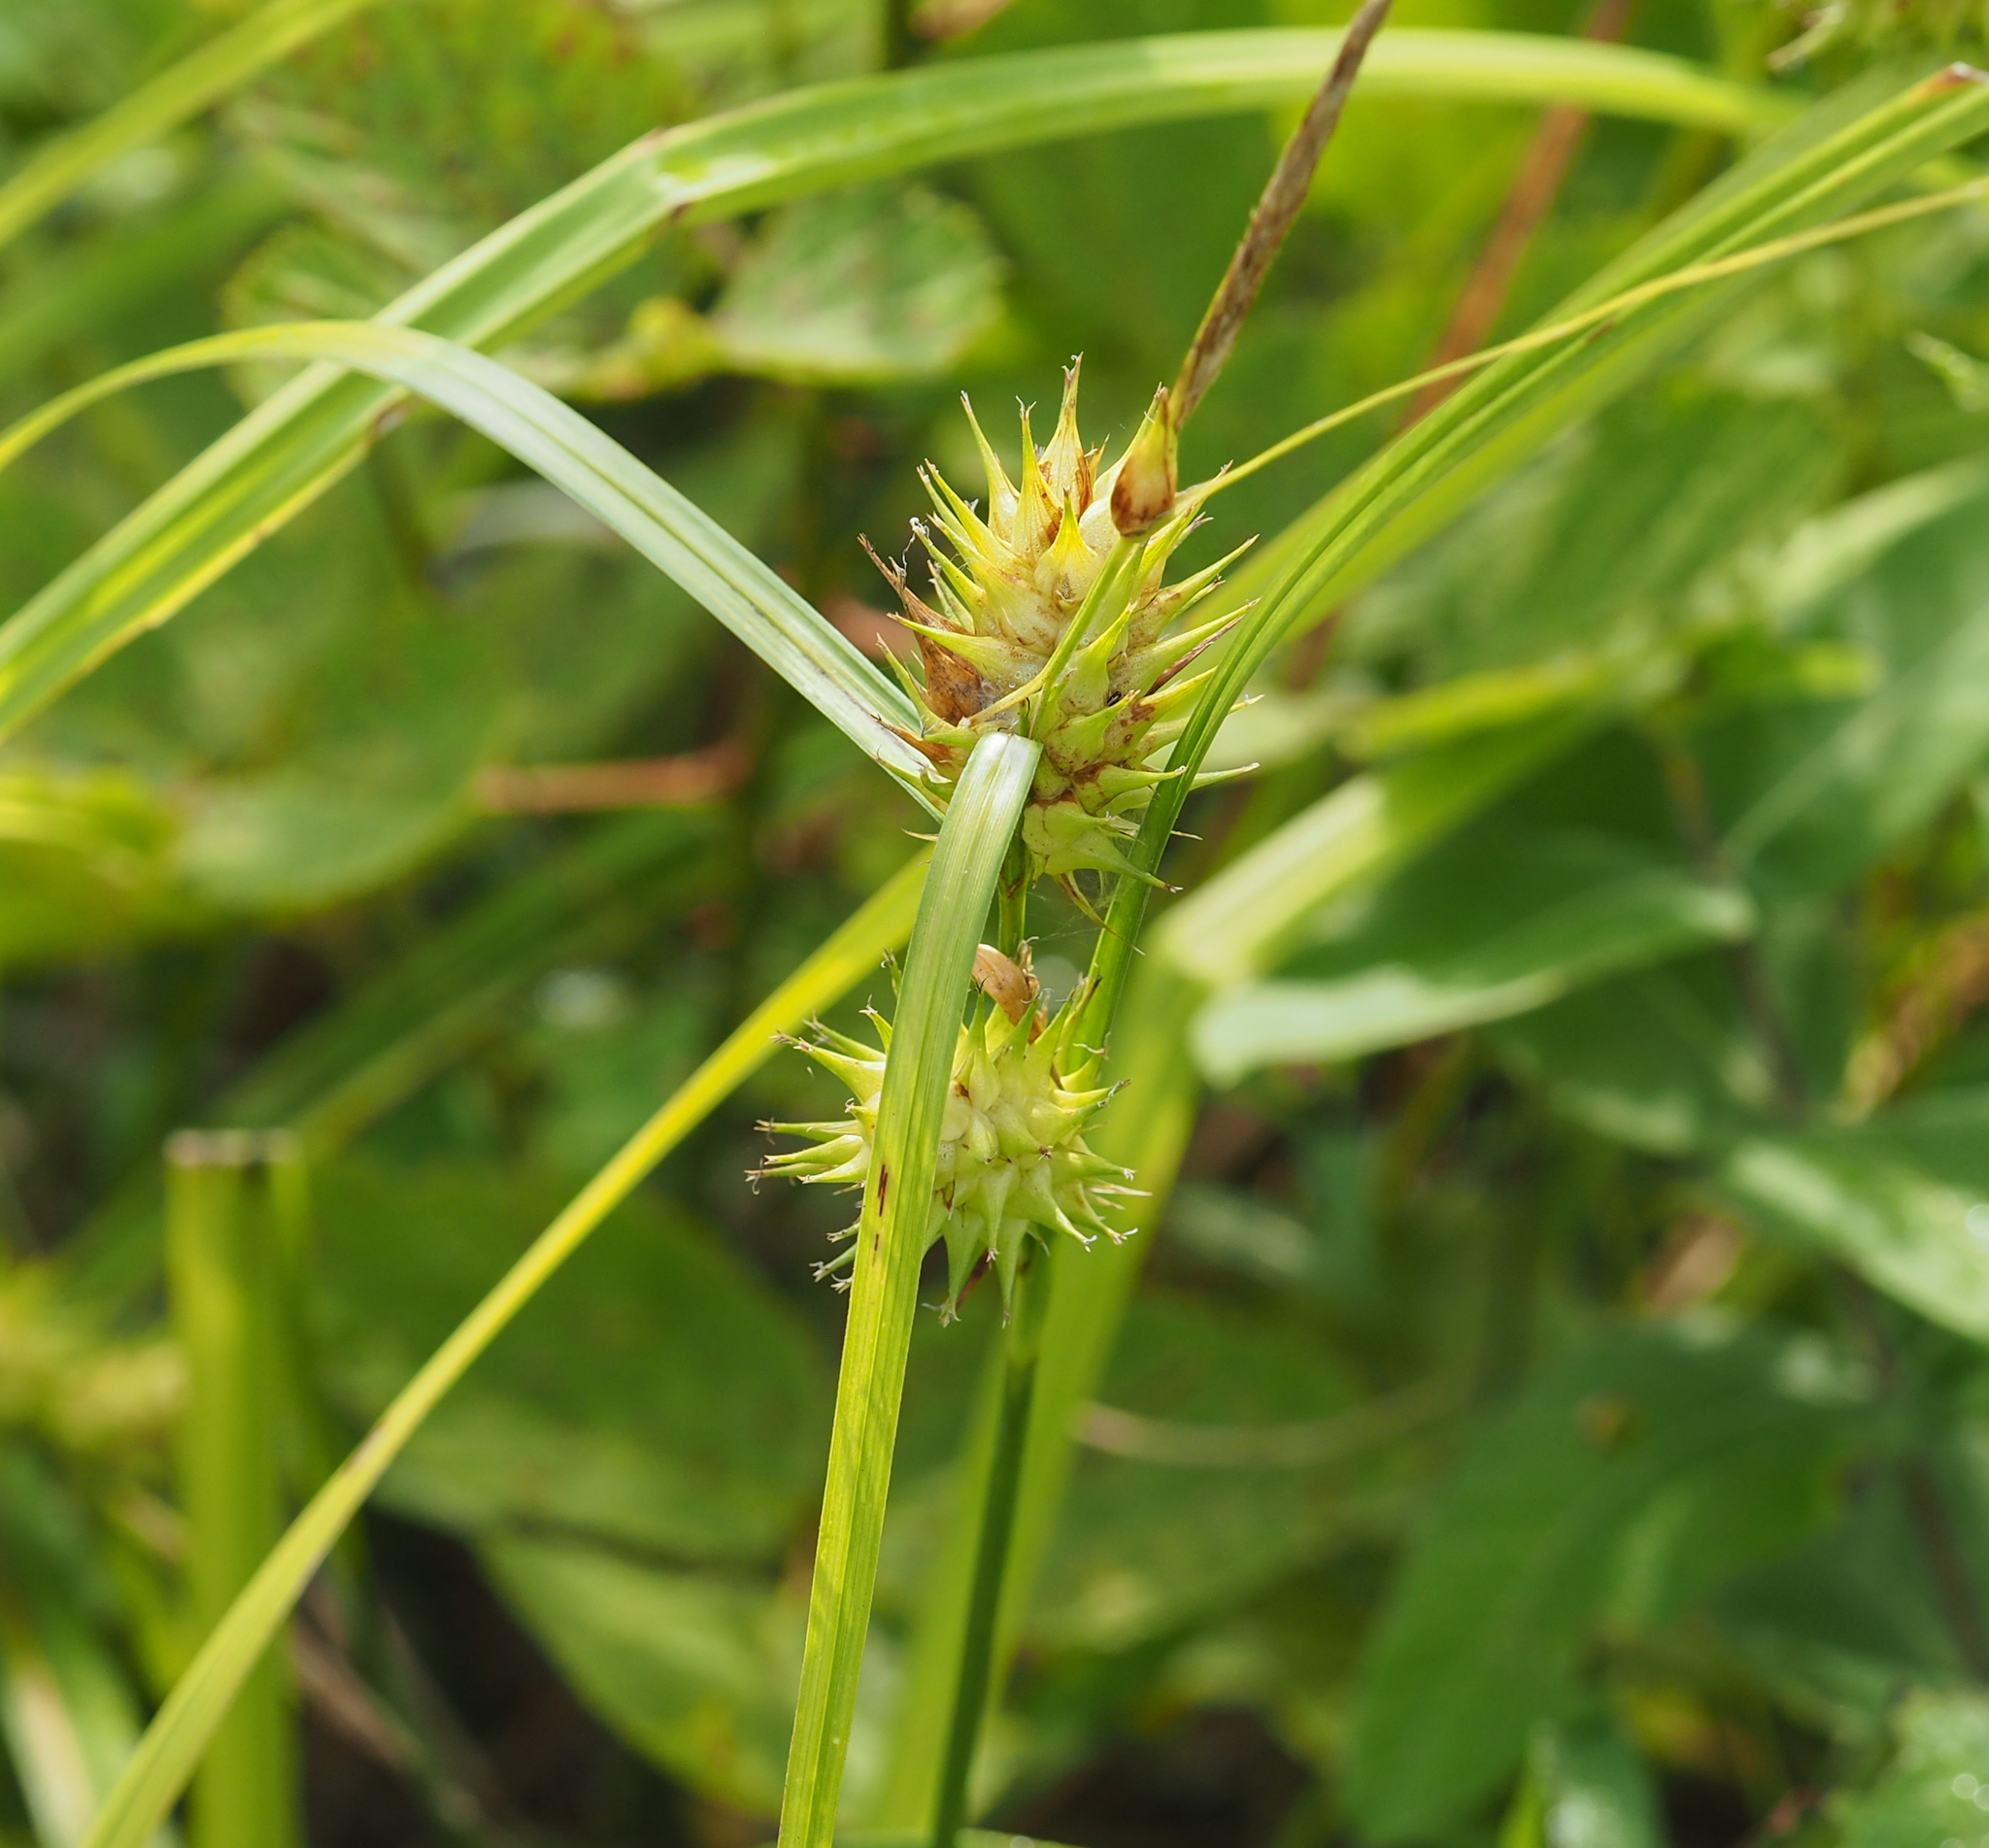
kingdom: Plantae
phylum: Tracheophyta
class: Liliopsida
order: Poales
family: Cyperaceae
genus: Carex
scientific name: Carex lupulina
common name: Hop sedge
